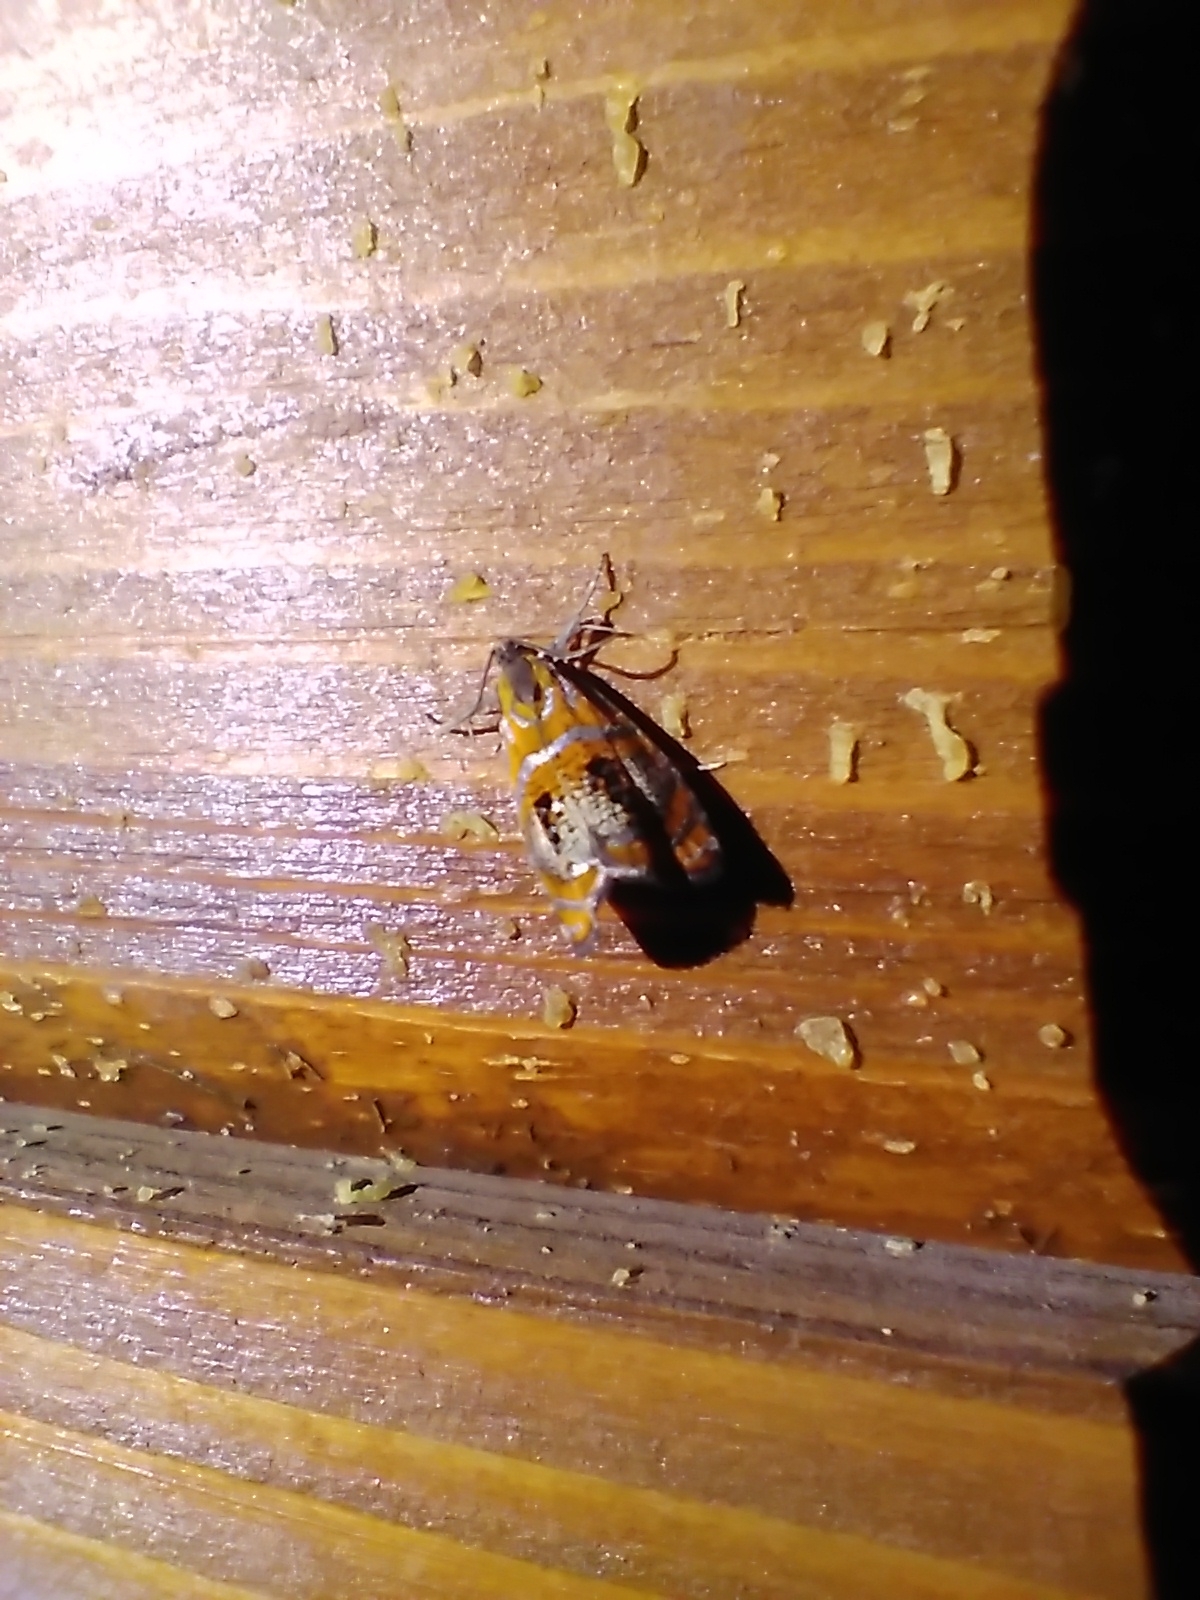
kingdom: Animalia
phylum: Arthropoda
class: Insecta
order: Lepidoptera
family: Tortricidae
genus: Olethreutes
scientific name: Olethreutes arcuella
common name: Arched marble
